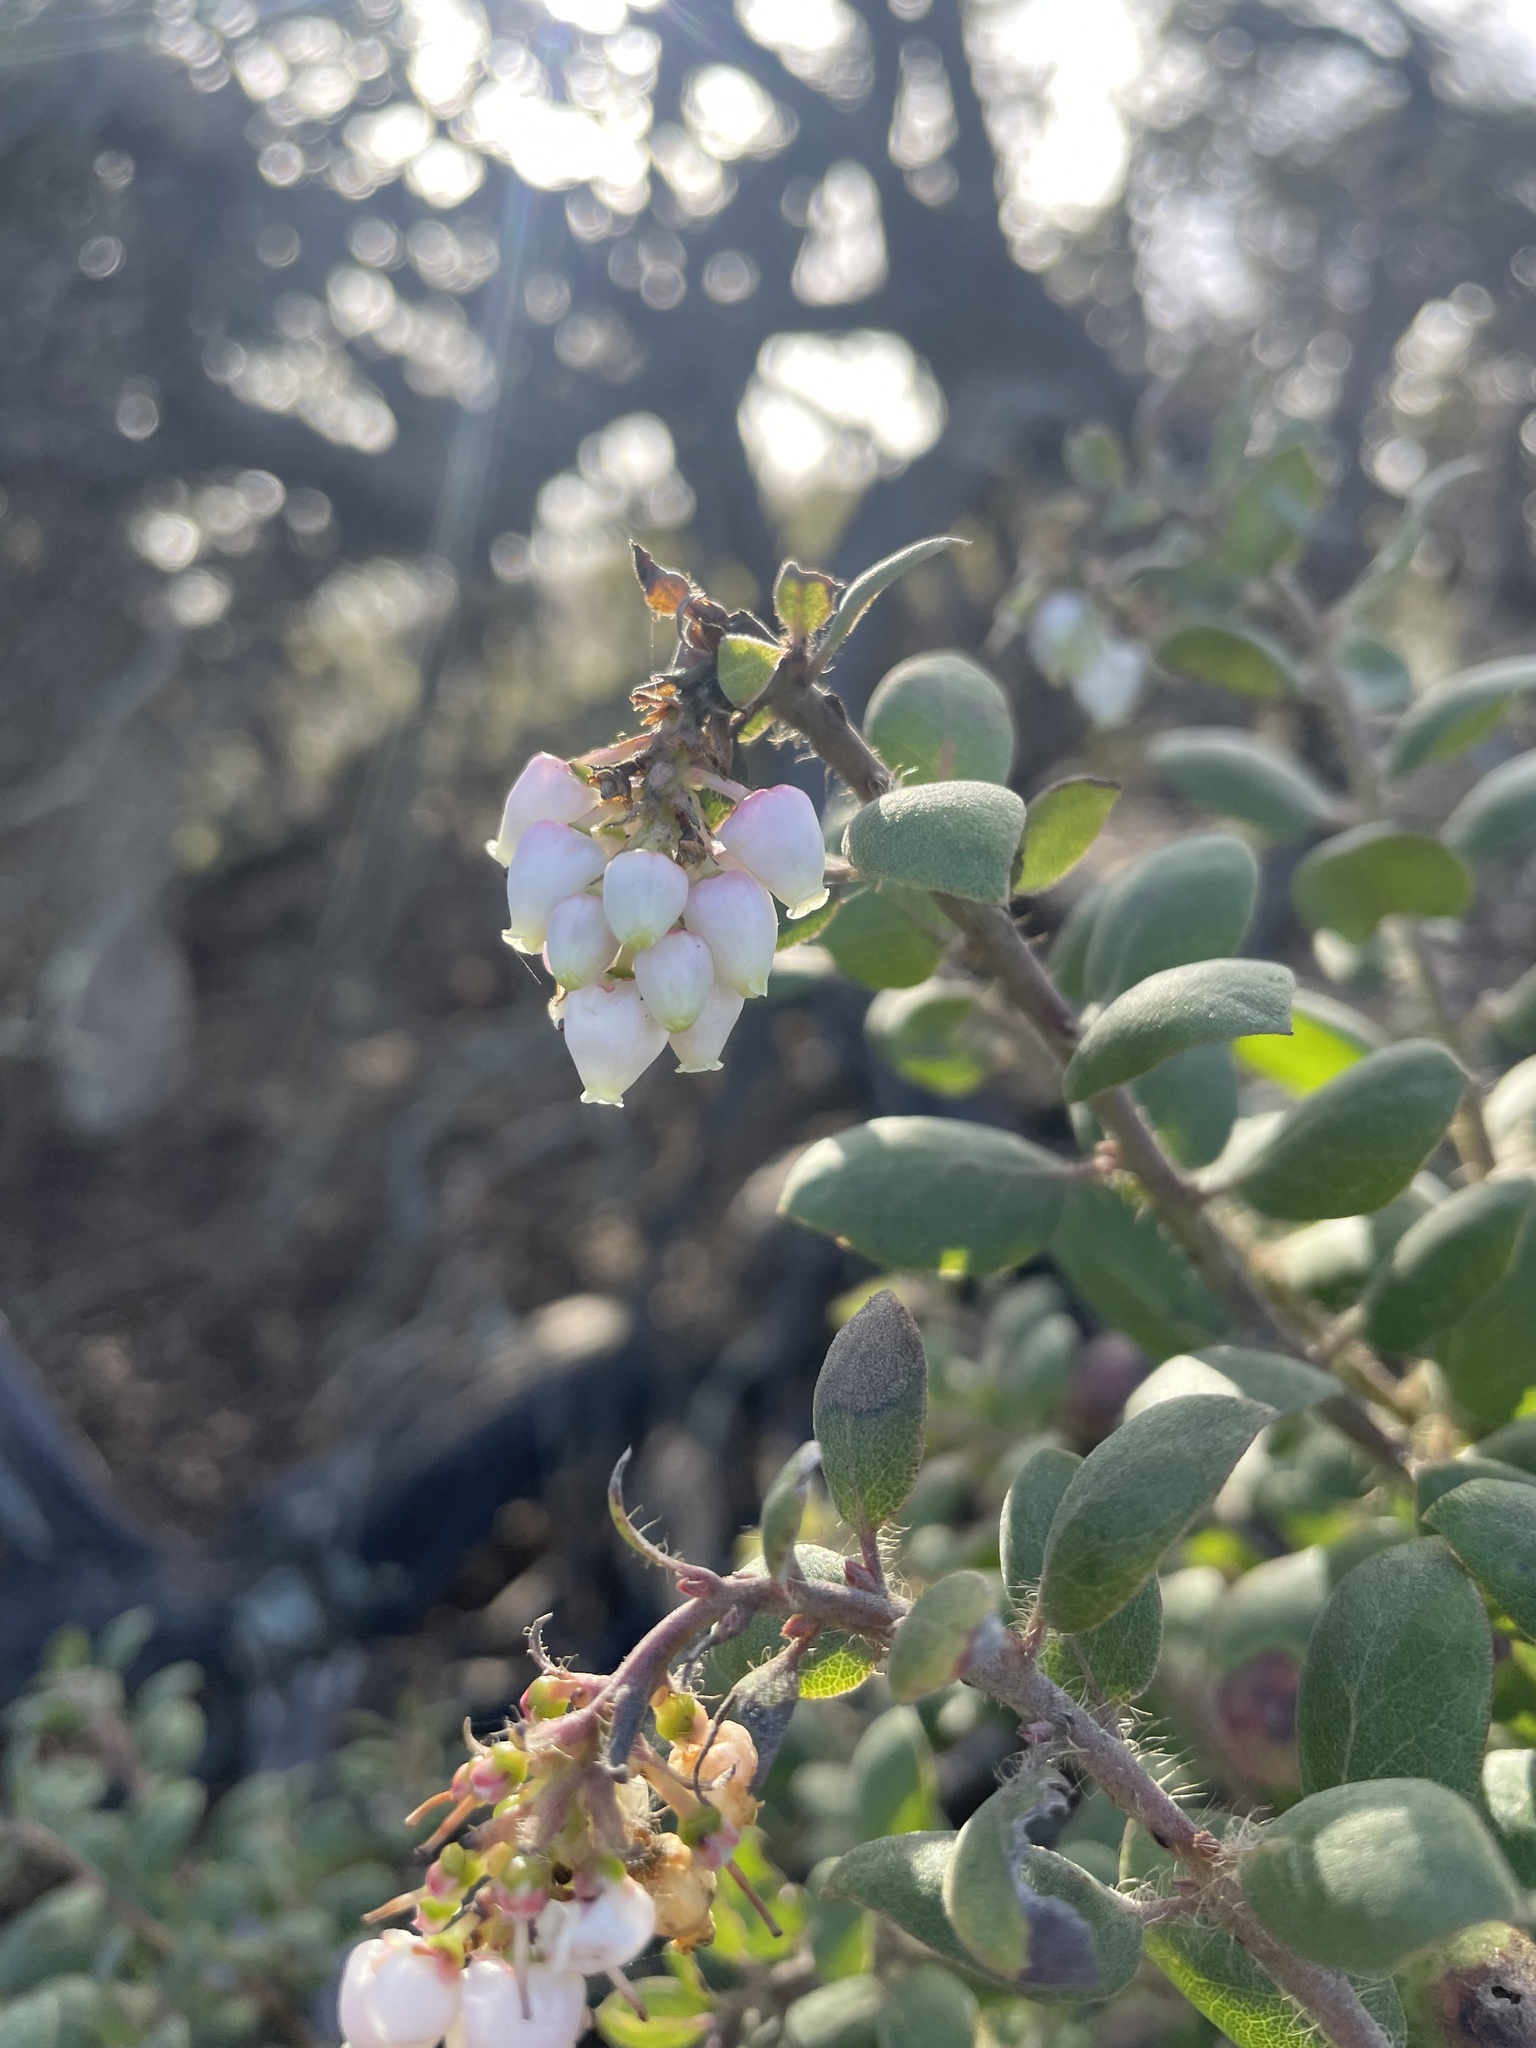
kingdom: Plantae
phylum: Tracheophyta
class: Magnoliopsida
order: Ericales
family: Ericaceae
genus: Arctostaphylos
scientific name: Arctostaphylos morroensis
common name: Morro manzanita
